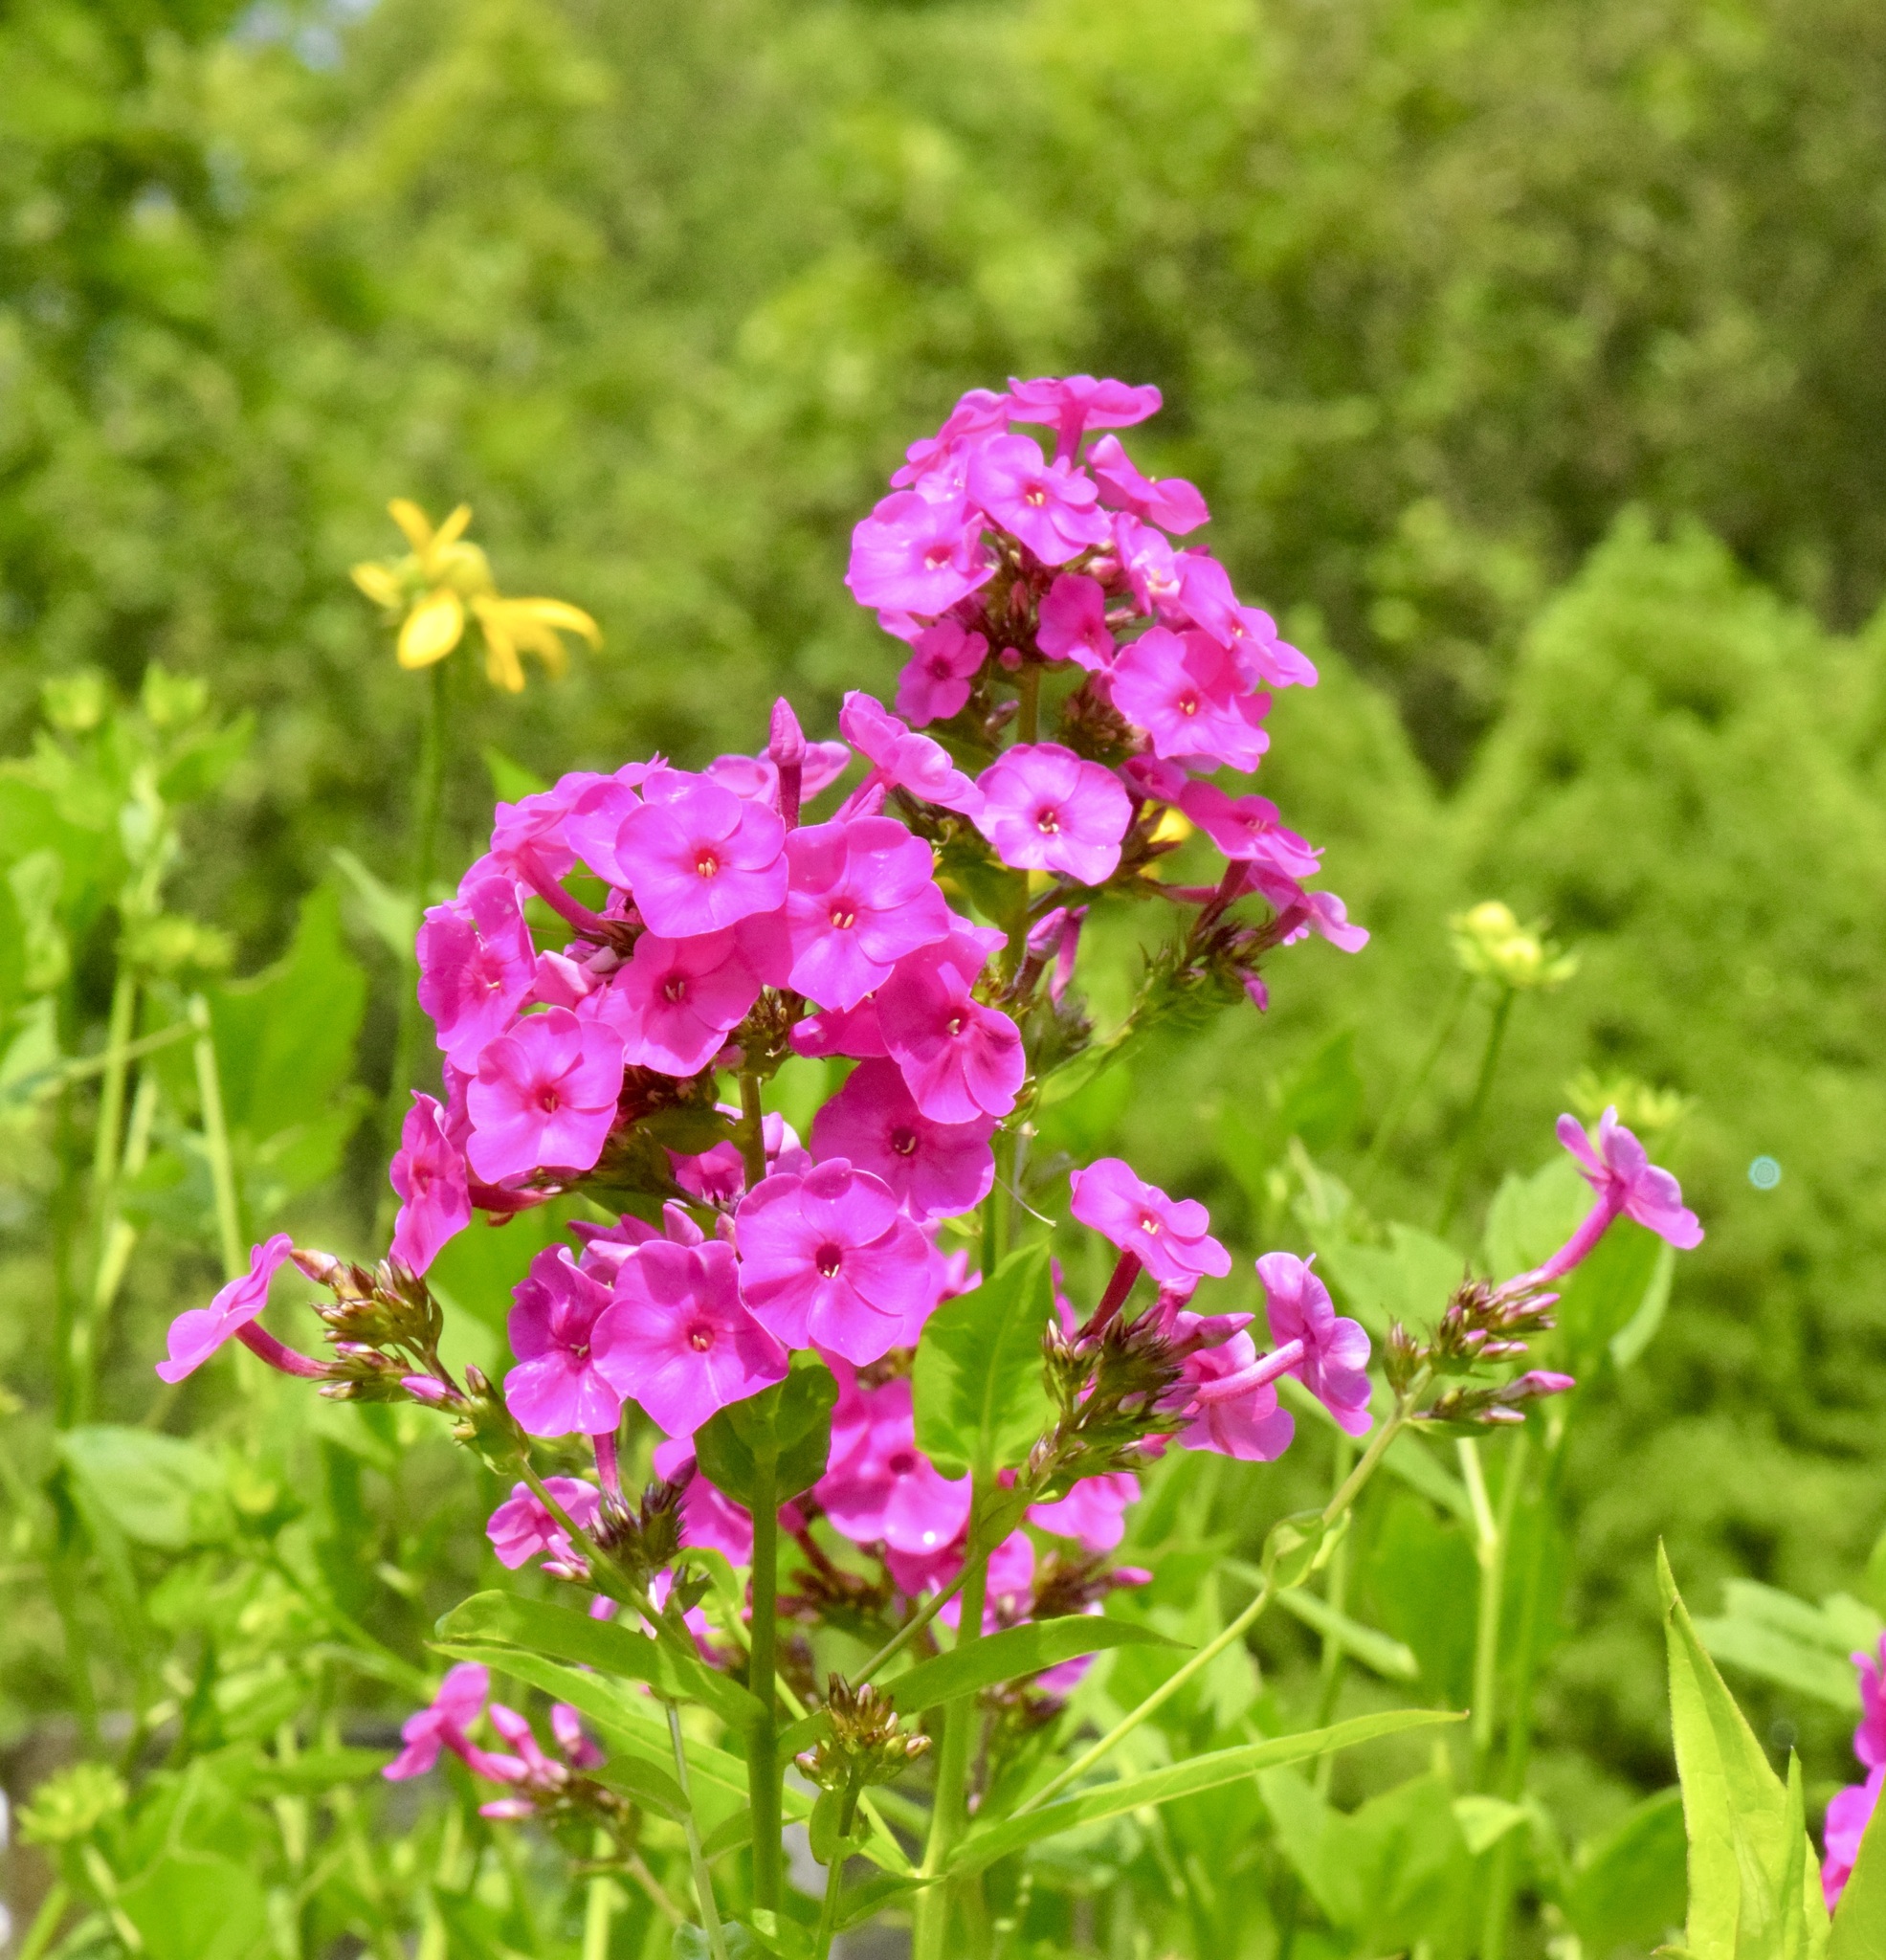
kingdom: Plantae
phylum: Tracheophyta
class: Magnoliopsida
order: Ericales
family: Polemoniaceae
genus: Phlox
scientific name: Phlox paniculata
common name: Fall phlox
